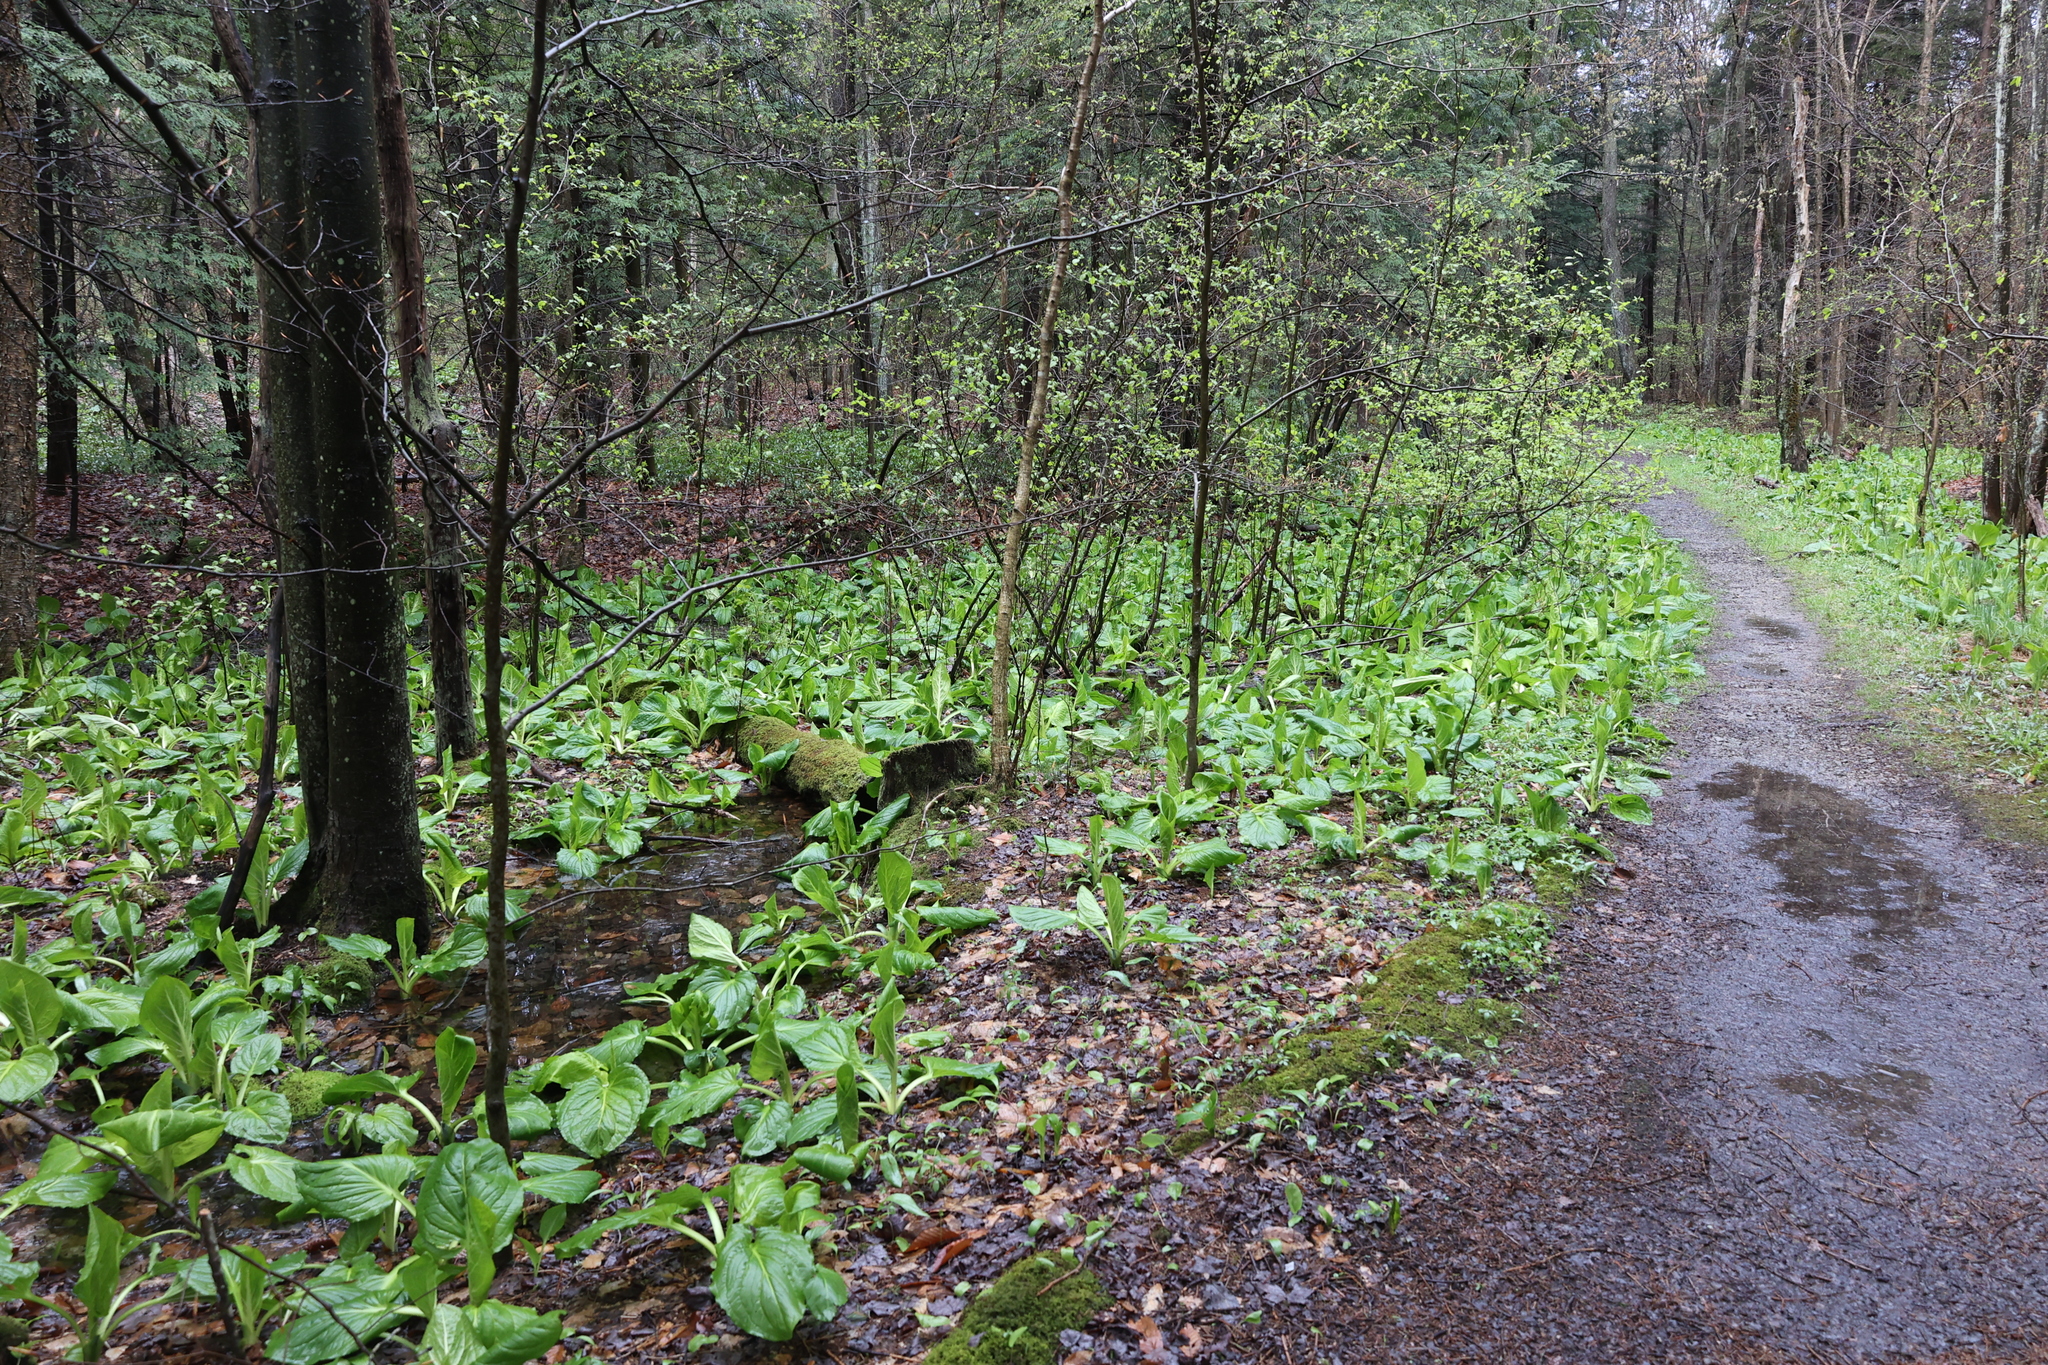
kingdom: Plantae
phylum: Tracheophyta
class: Liliopsida
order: Alismatales
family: Araceae
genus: Symplocarpus
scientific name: Symplocarpus foetidus
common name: Eastern skunk cabbage
